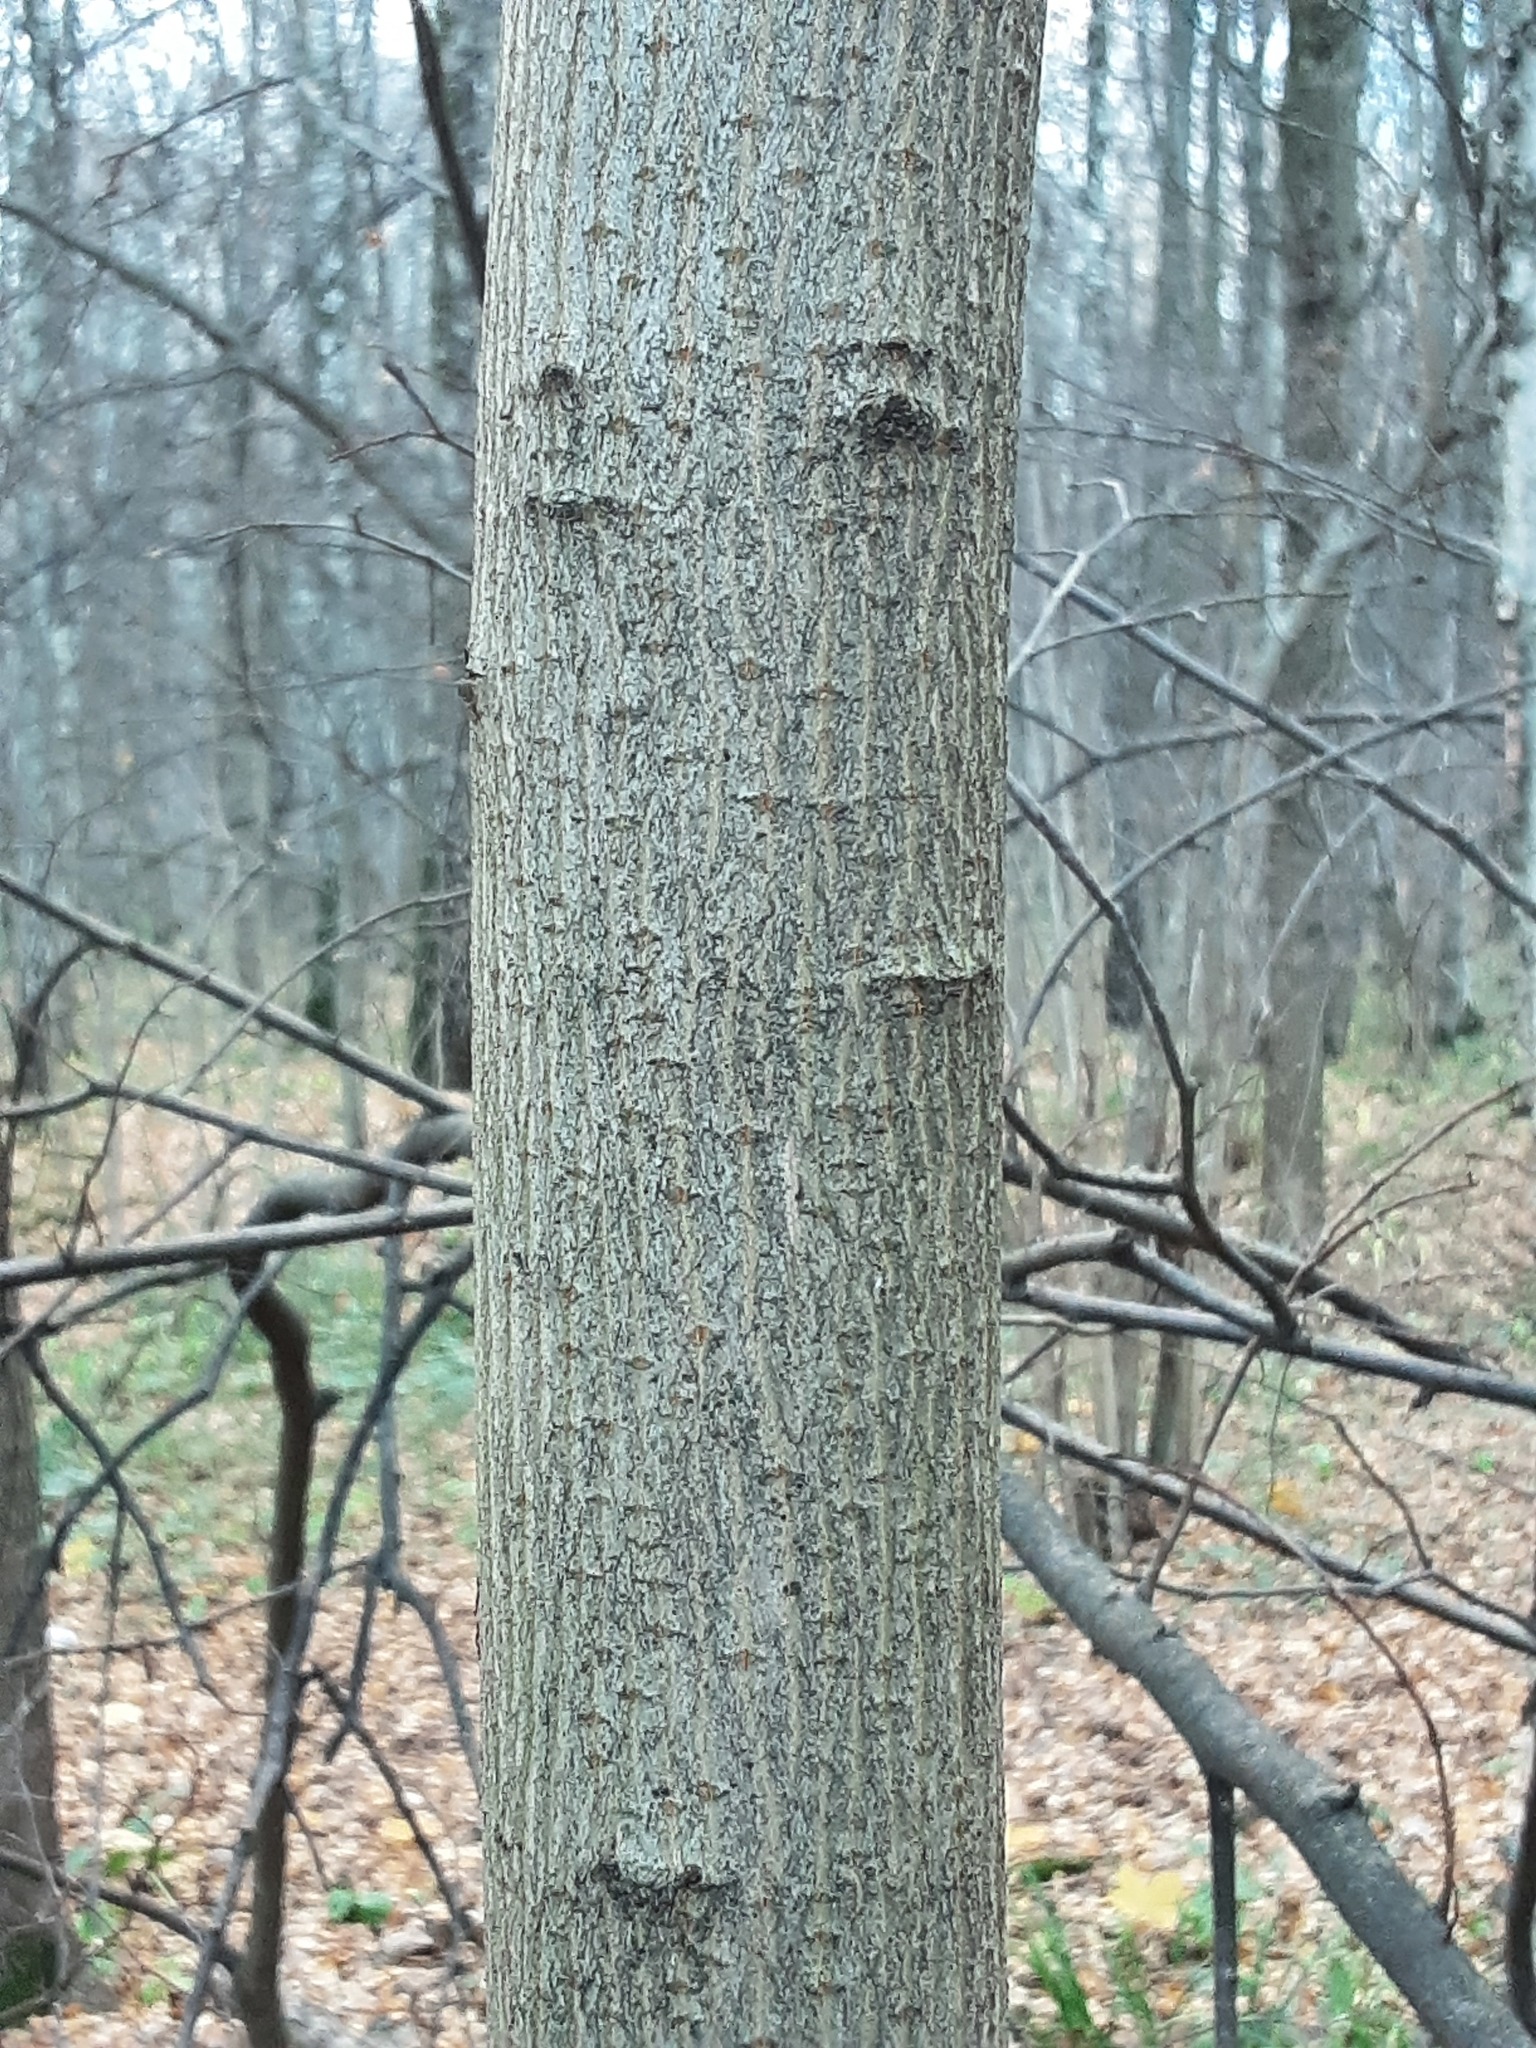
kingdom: Plantae
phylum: Tracheophyta
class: Magnoliopsida
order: Sapindales
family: Sapindaceae
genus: Acer
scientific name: Acer platanoides
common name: Norway maple
